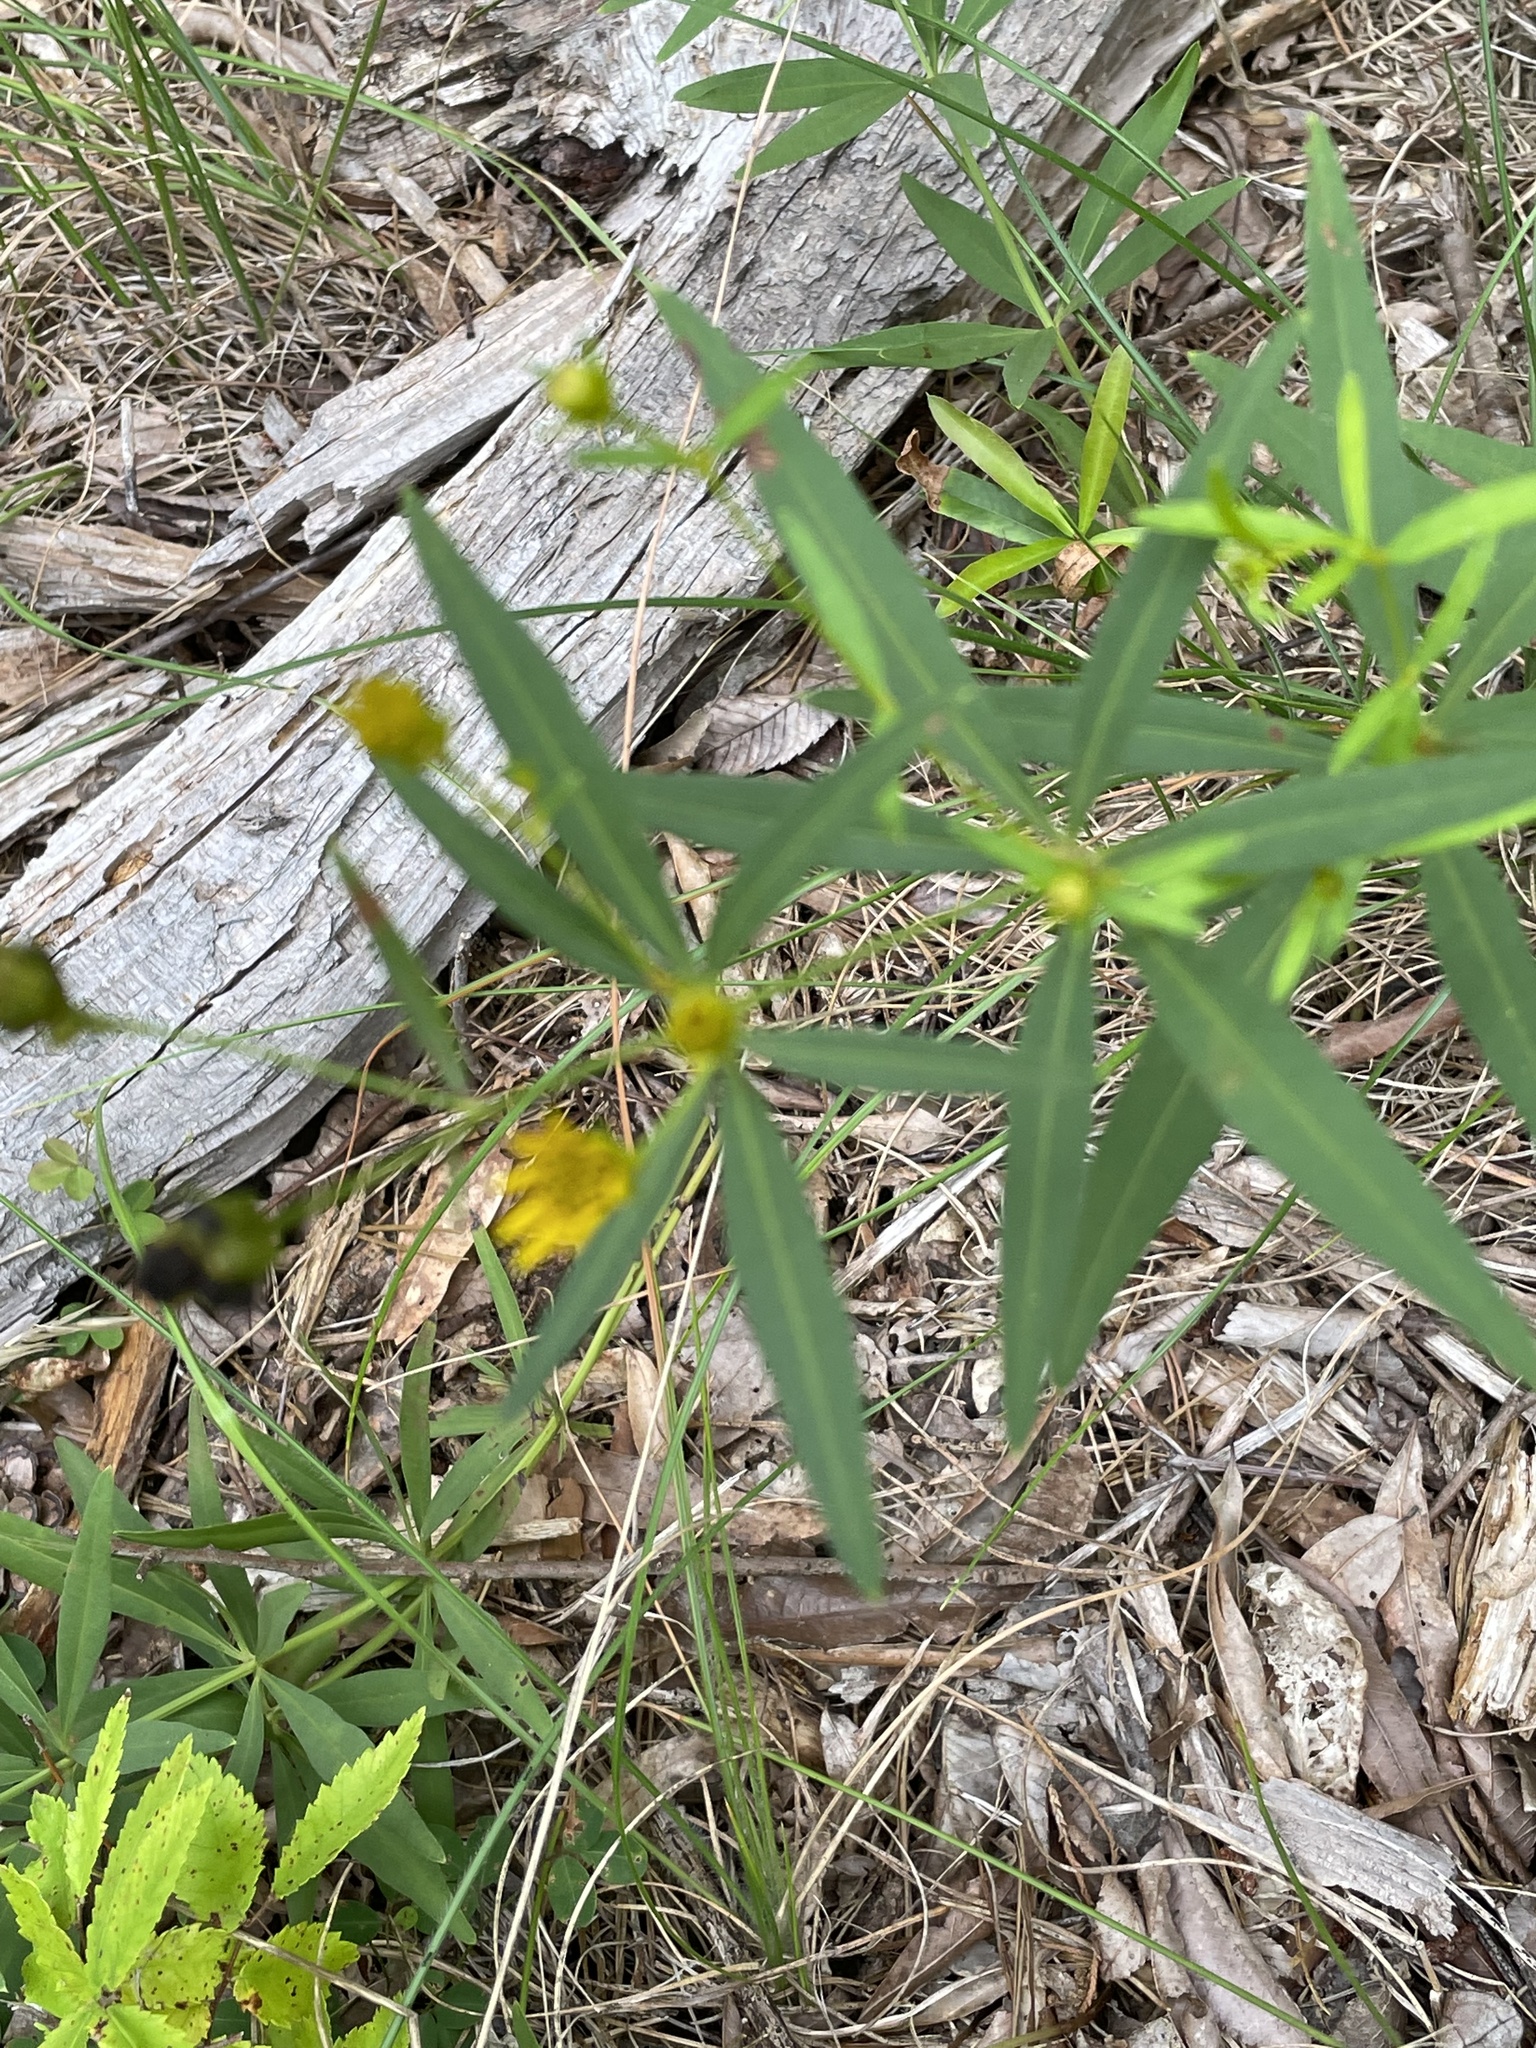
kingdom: Plantae
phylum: Tracheophyta
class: Magnoliopsida
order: Asterales
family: Asteraceae
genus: Coreopsis
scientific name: Coreopsis major
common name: Forest tickseed
